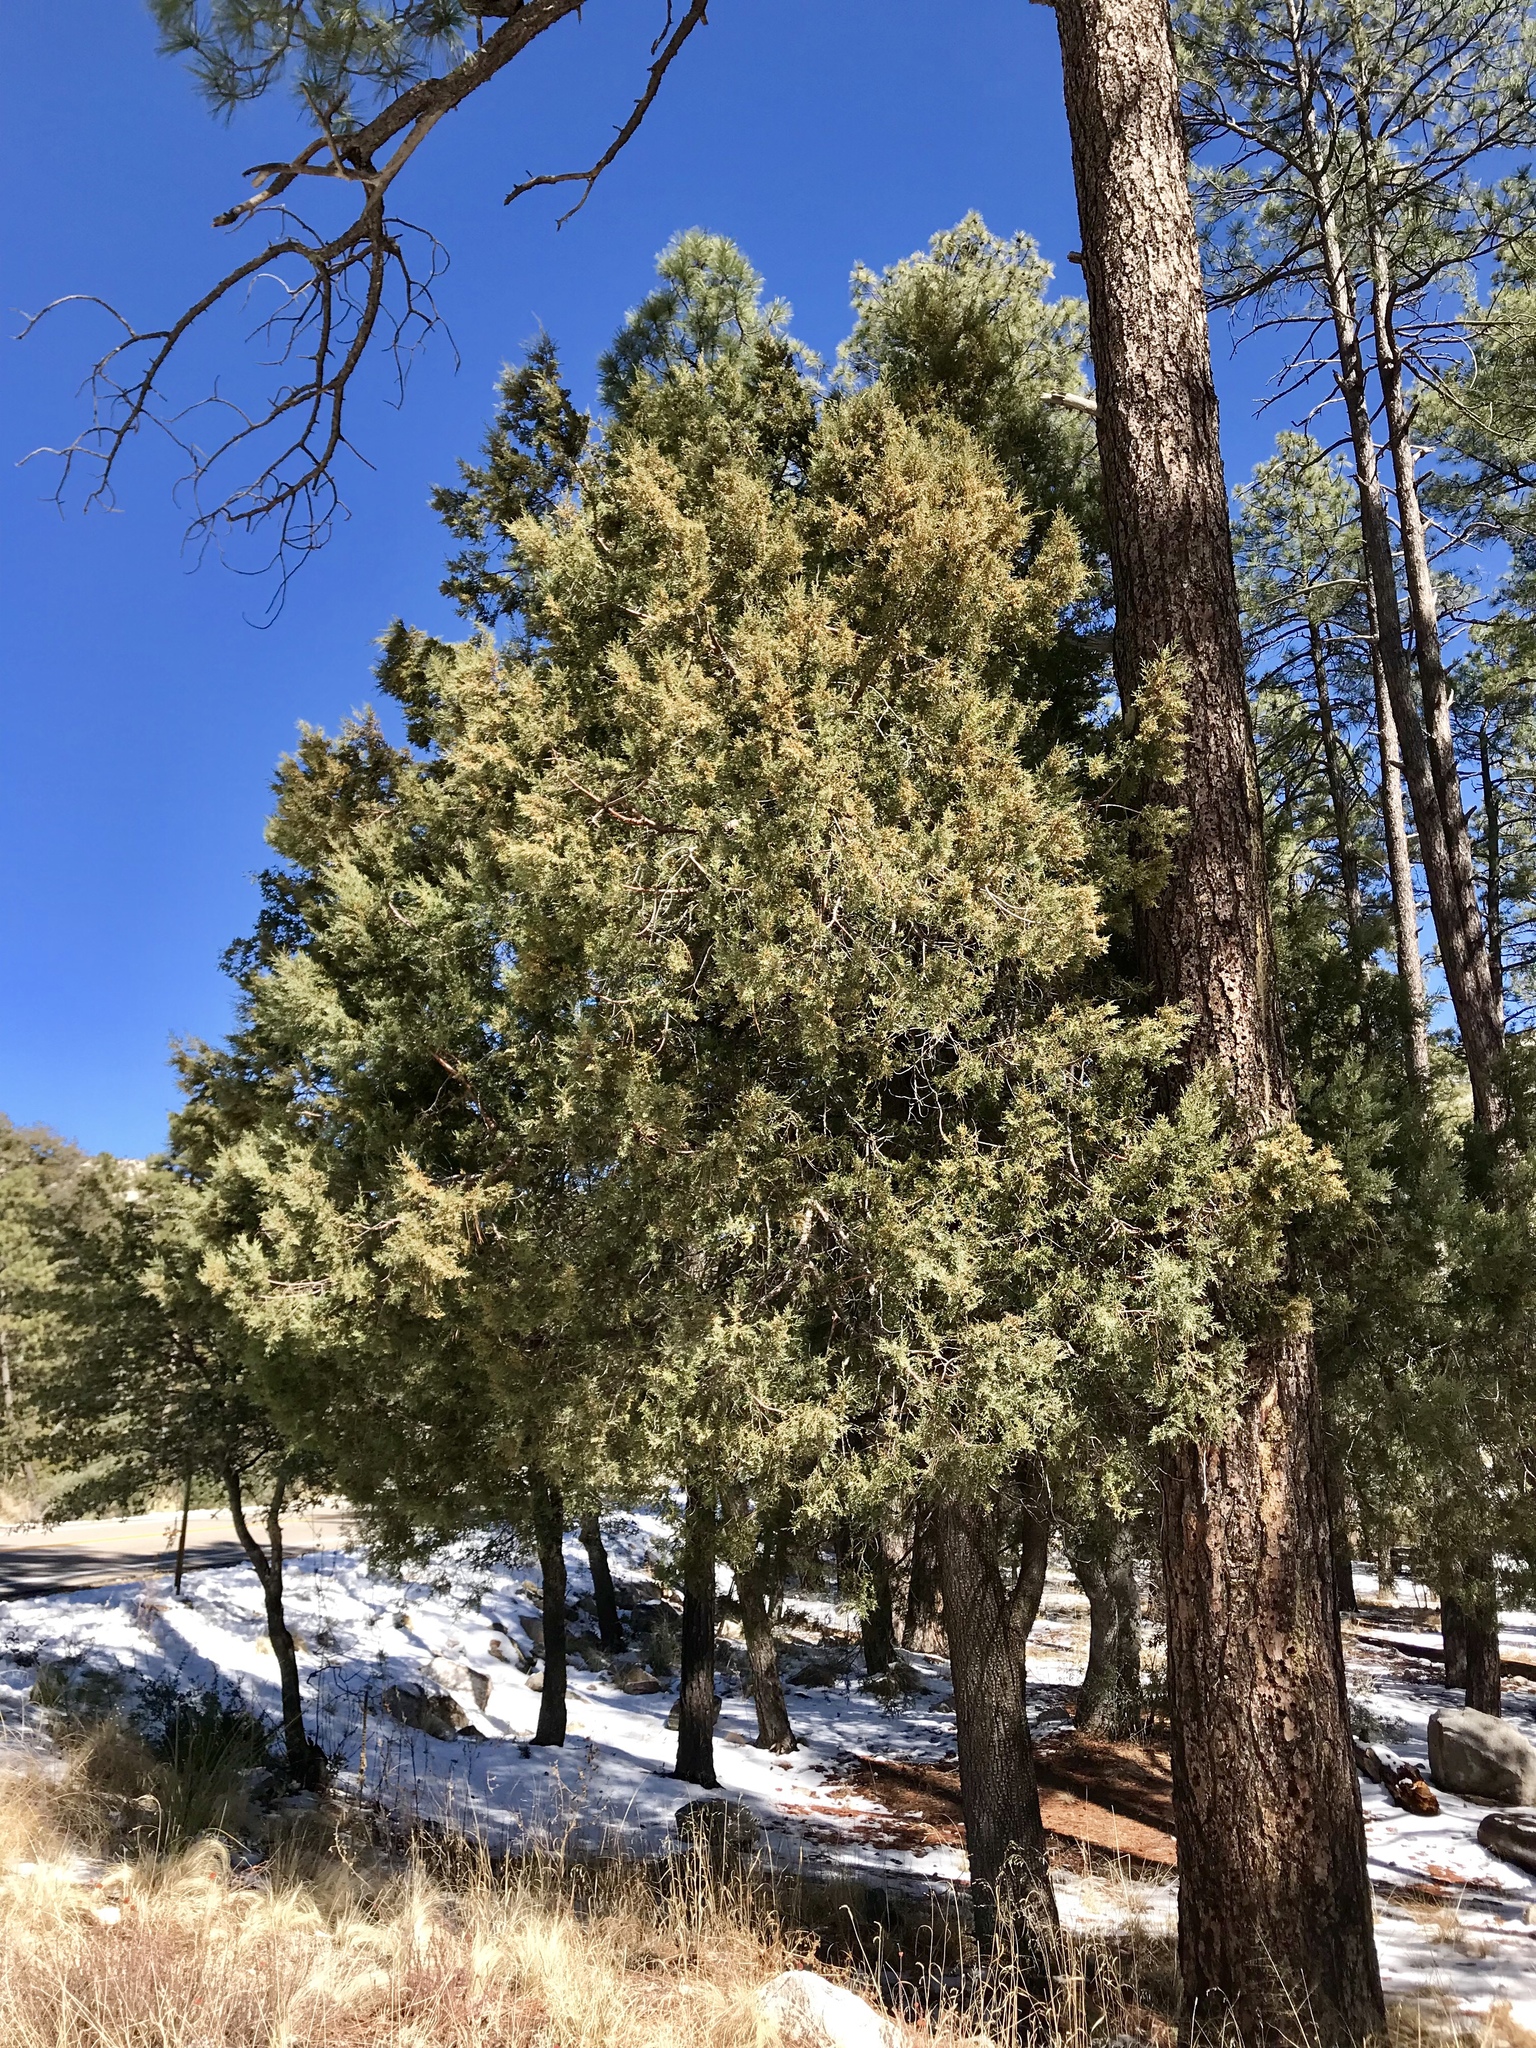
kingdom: Plantae
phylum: Tracheophyta
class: Pinopsida
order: Pinales
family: Cupressaceae
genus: Juniperus
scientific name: Juniperus deppeana
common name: Alligator juniper
